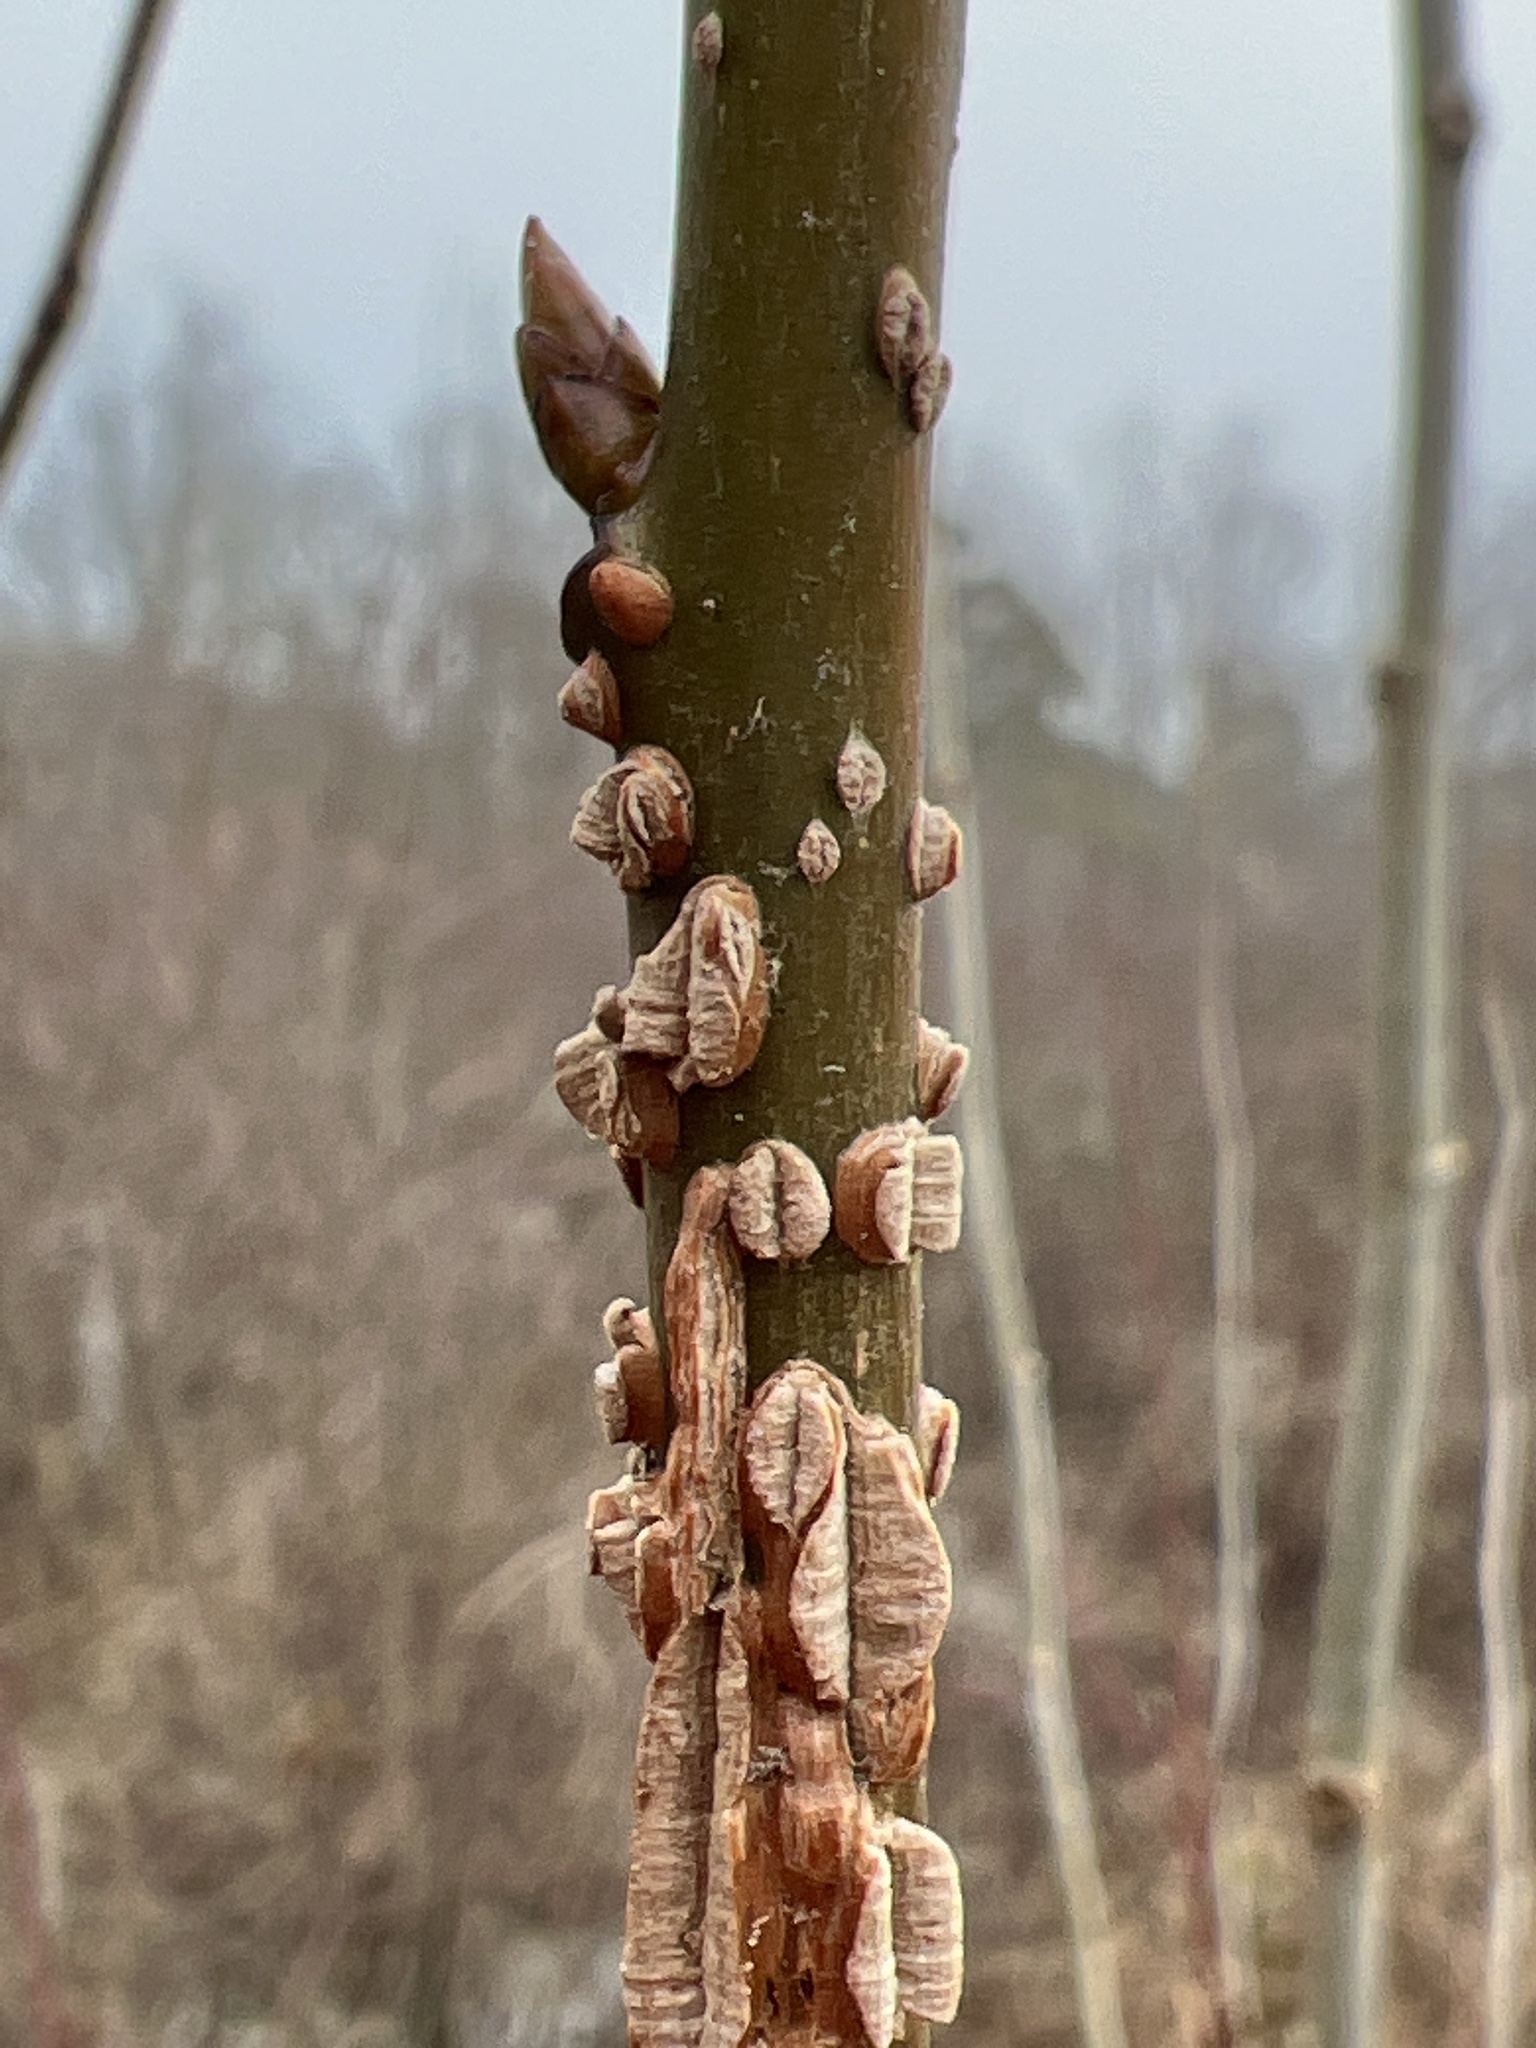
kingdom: Plantae
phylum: Tracheophyta
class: Magnoliopsida
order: Saxifragales
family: Altingiaceae
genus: Liquidambar
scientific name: Liquidambar styraciflua
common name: Sweet gum
